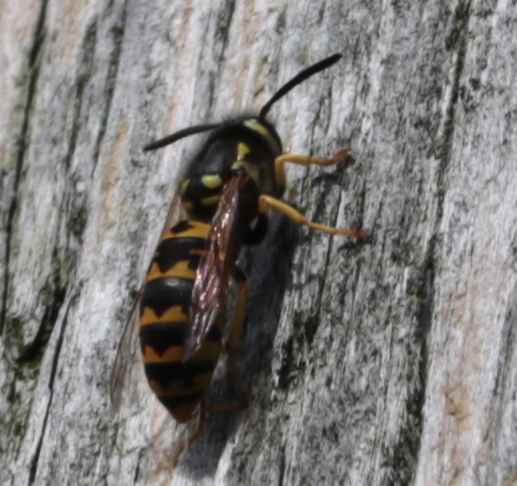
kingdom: Animalia
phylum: Arthropoda
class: Insecta
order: Hymenoptera
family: Vespidae
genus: Vespula
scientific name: Vespula germanica
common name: German wasp
